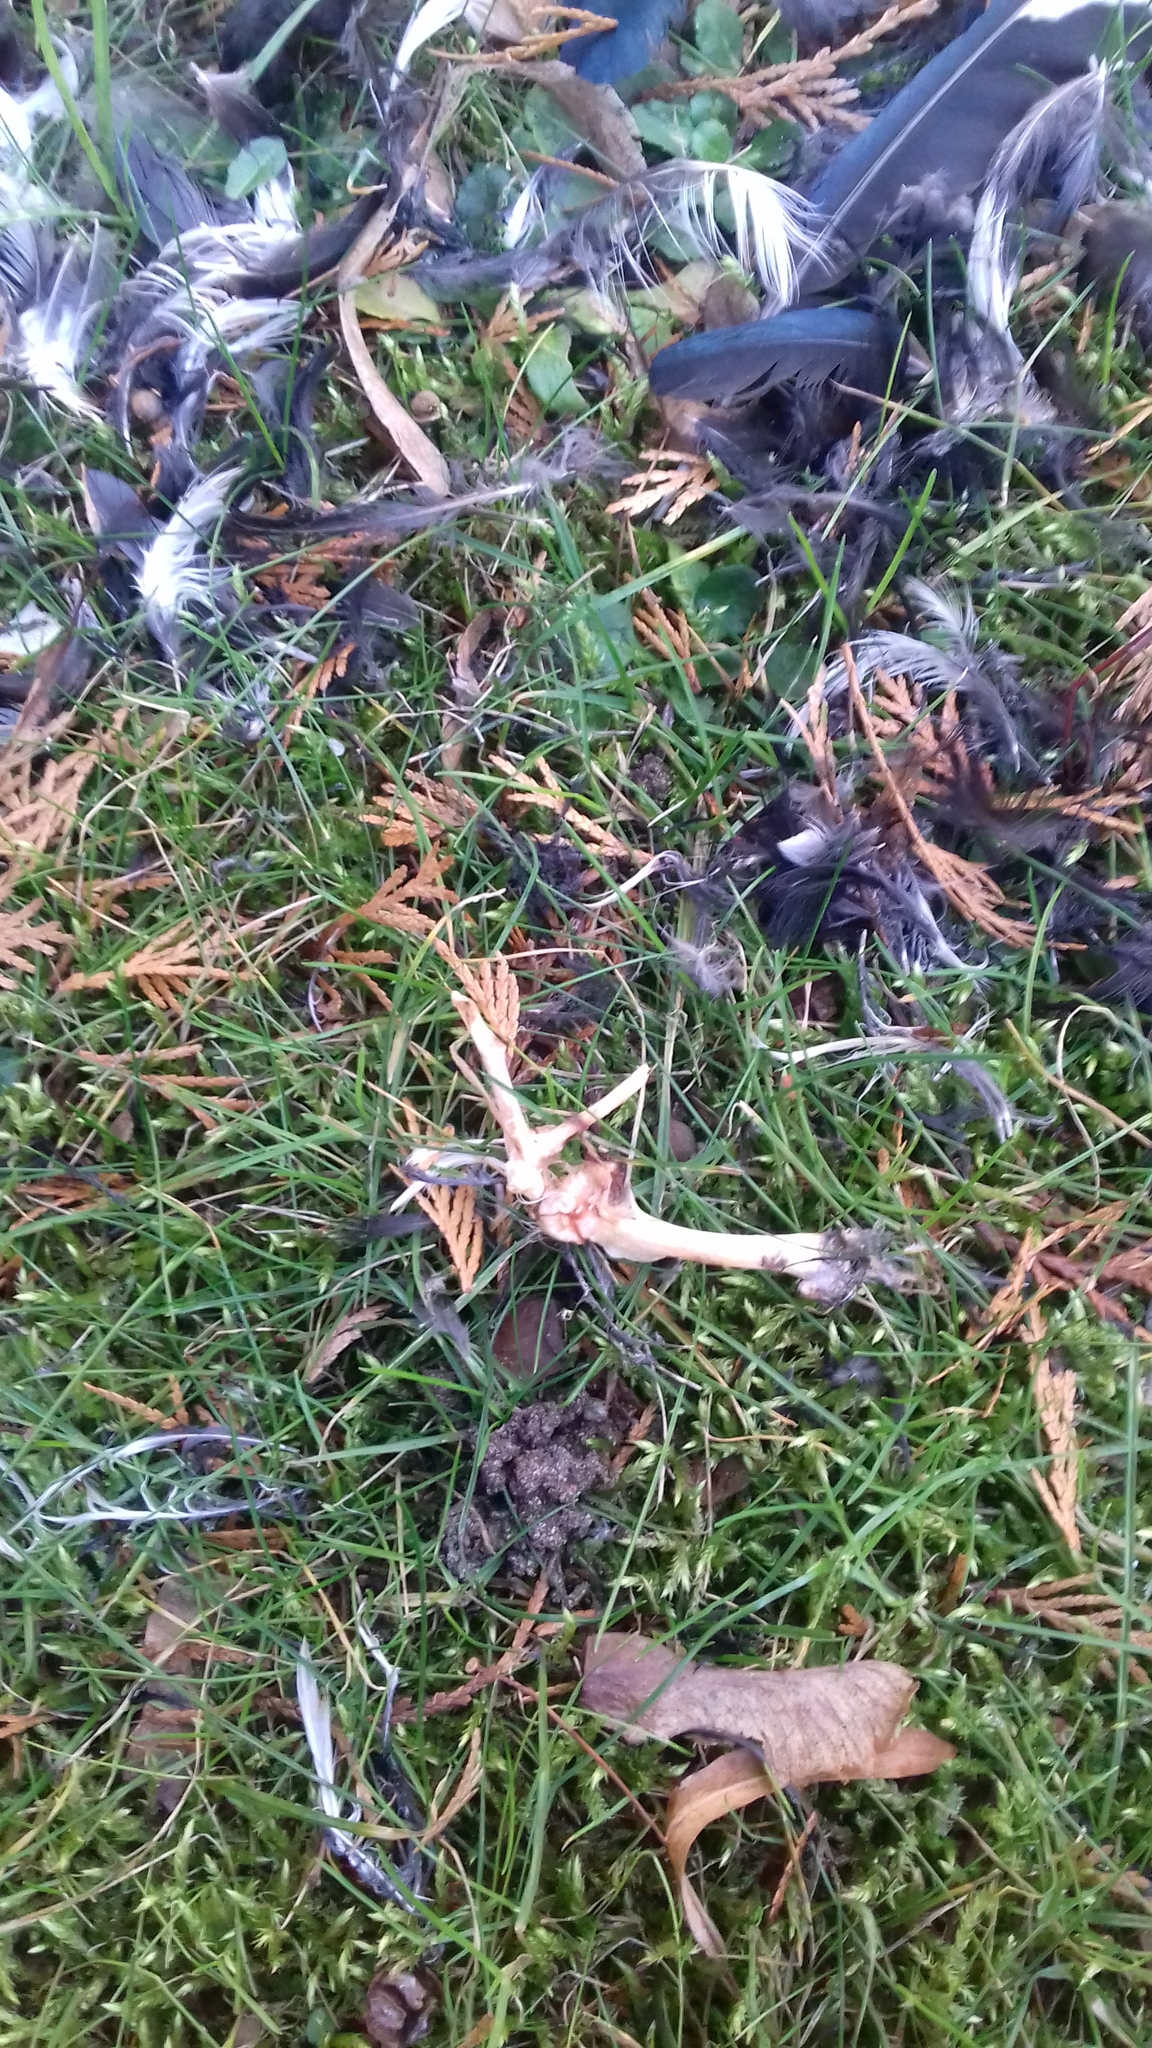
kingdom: Animalia
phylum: Chordata
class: Aves
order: Passeriformes
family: Corvidae
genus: Pica
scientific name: Pica pica
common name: Eurasian magpie
